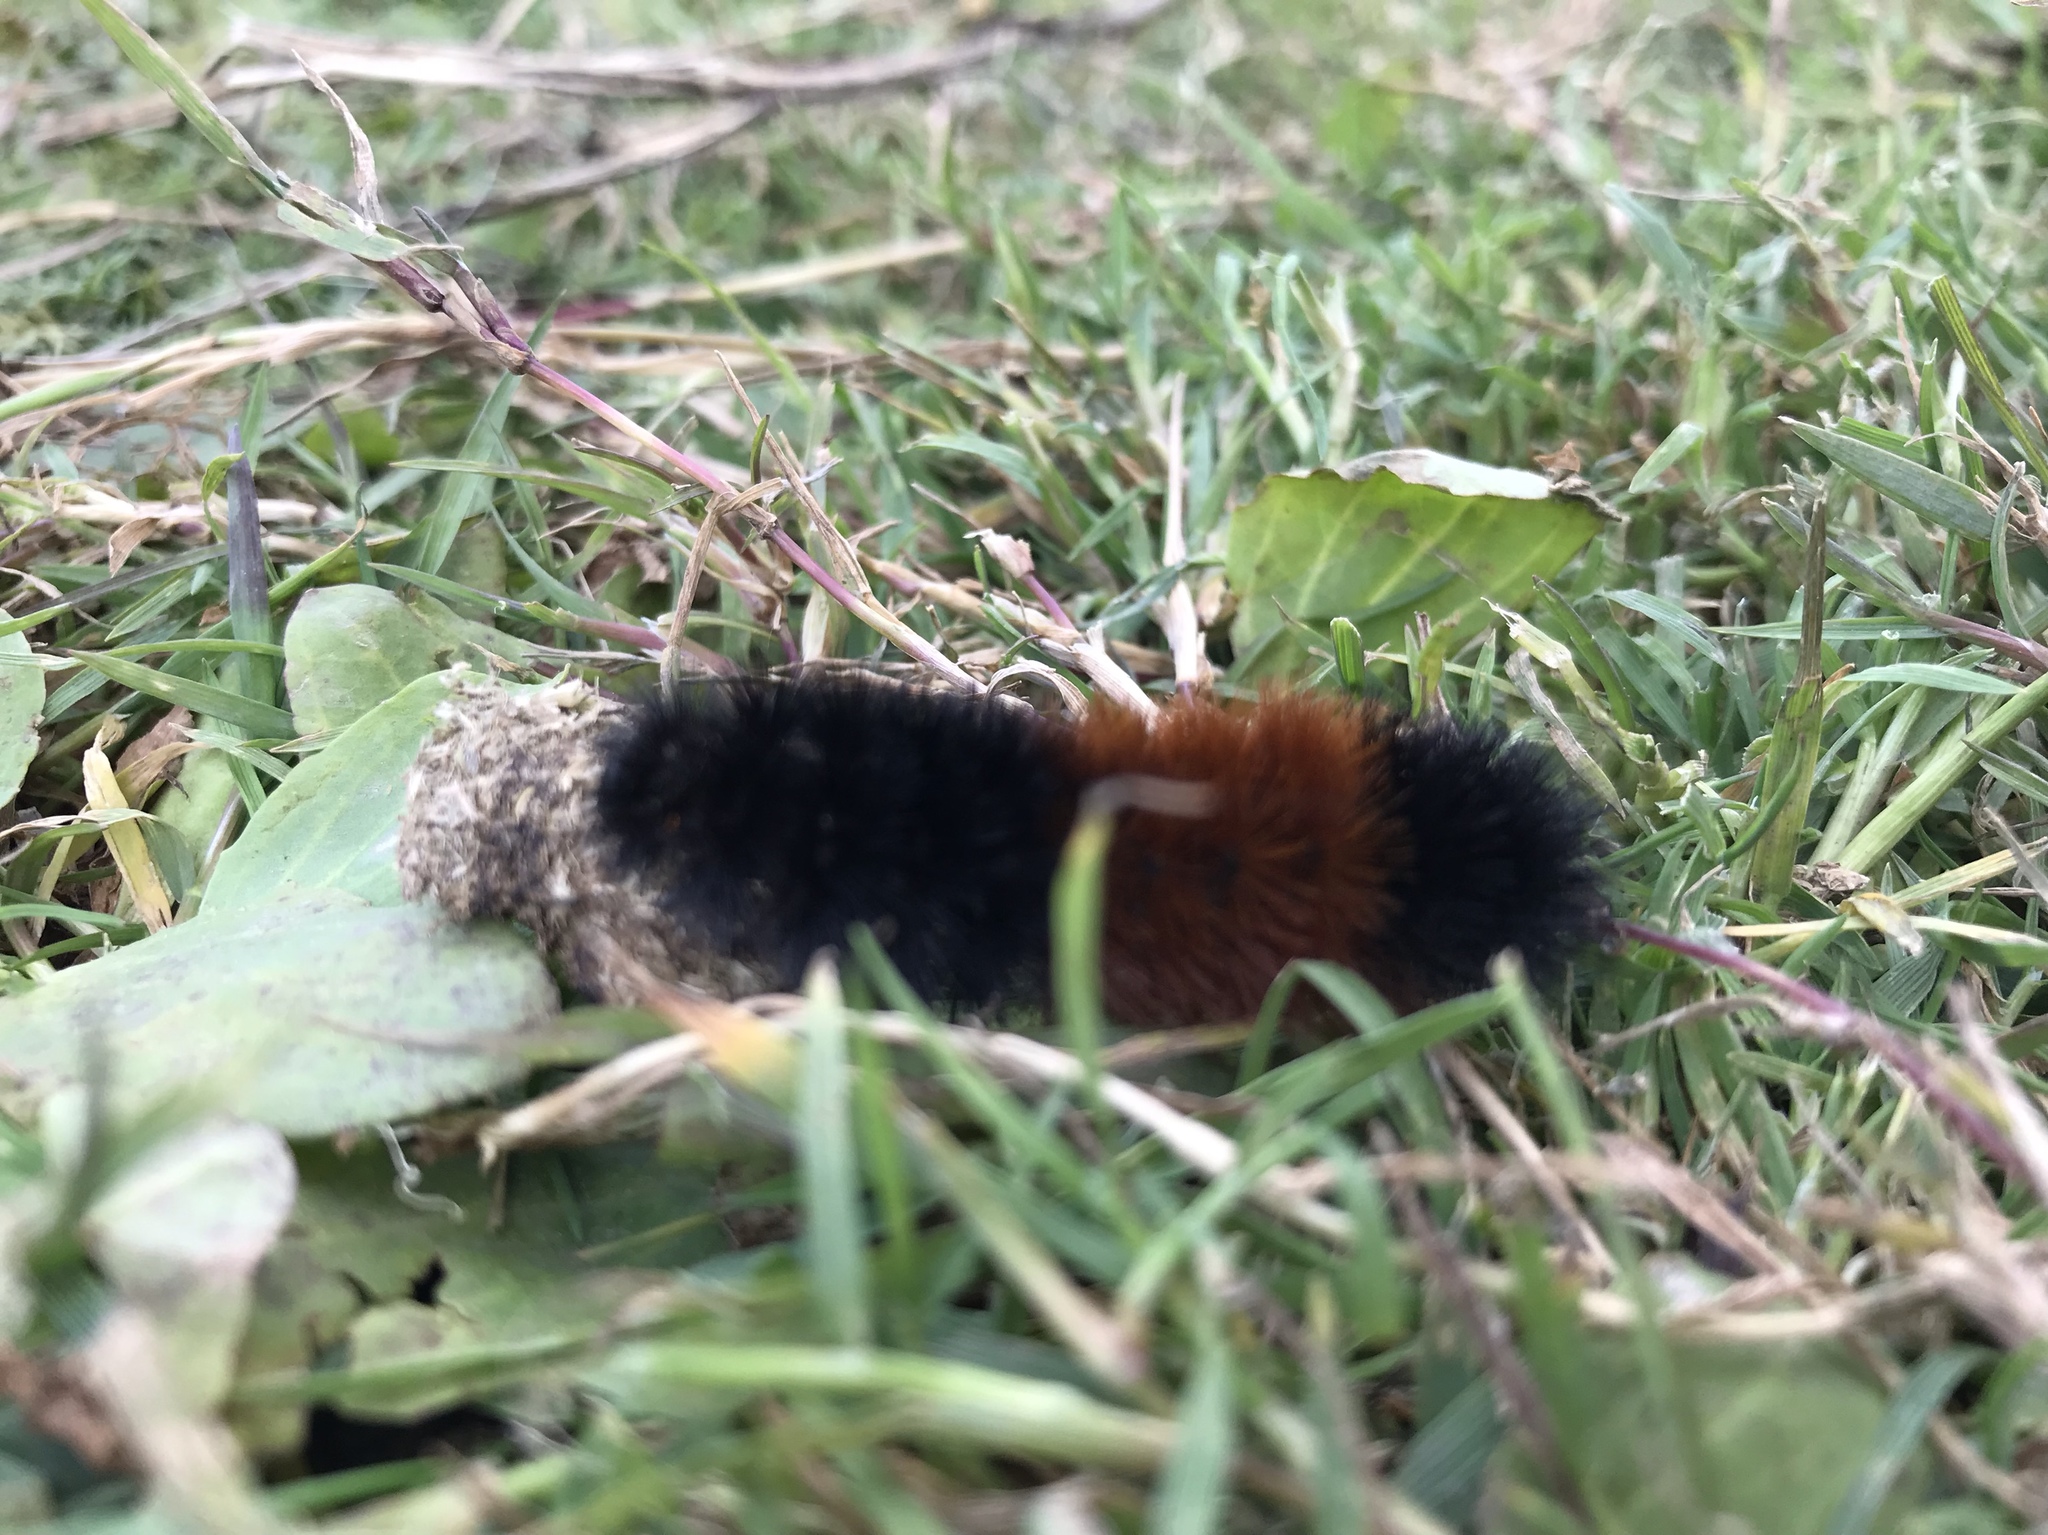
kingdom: Animalia
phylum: Arthropoda
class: Insecta
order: Lepidoptera
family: Erebidae
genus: Pyrrharctia
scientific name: Pyrrharctia isabella
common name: Isabella tiger moth
